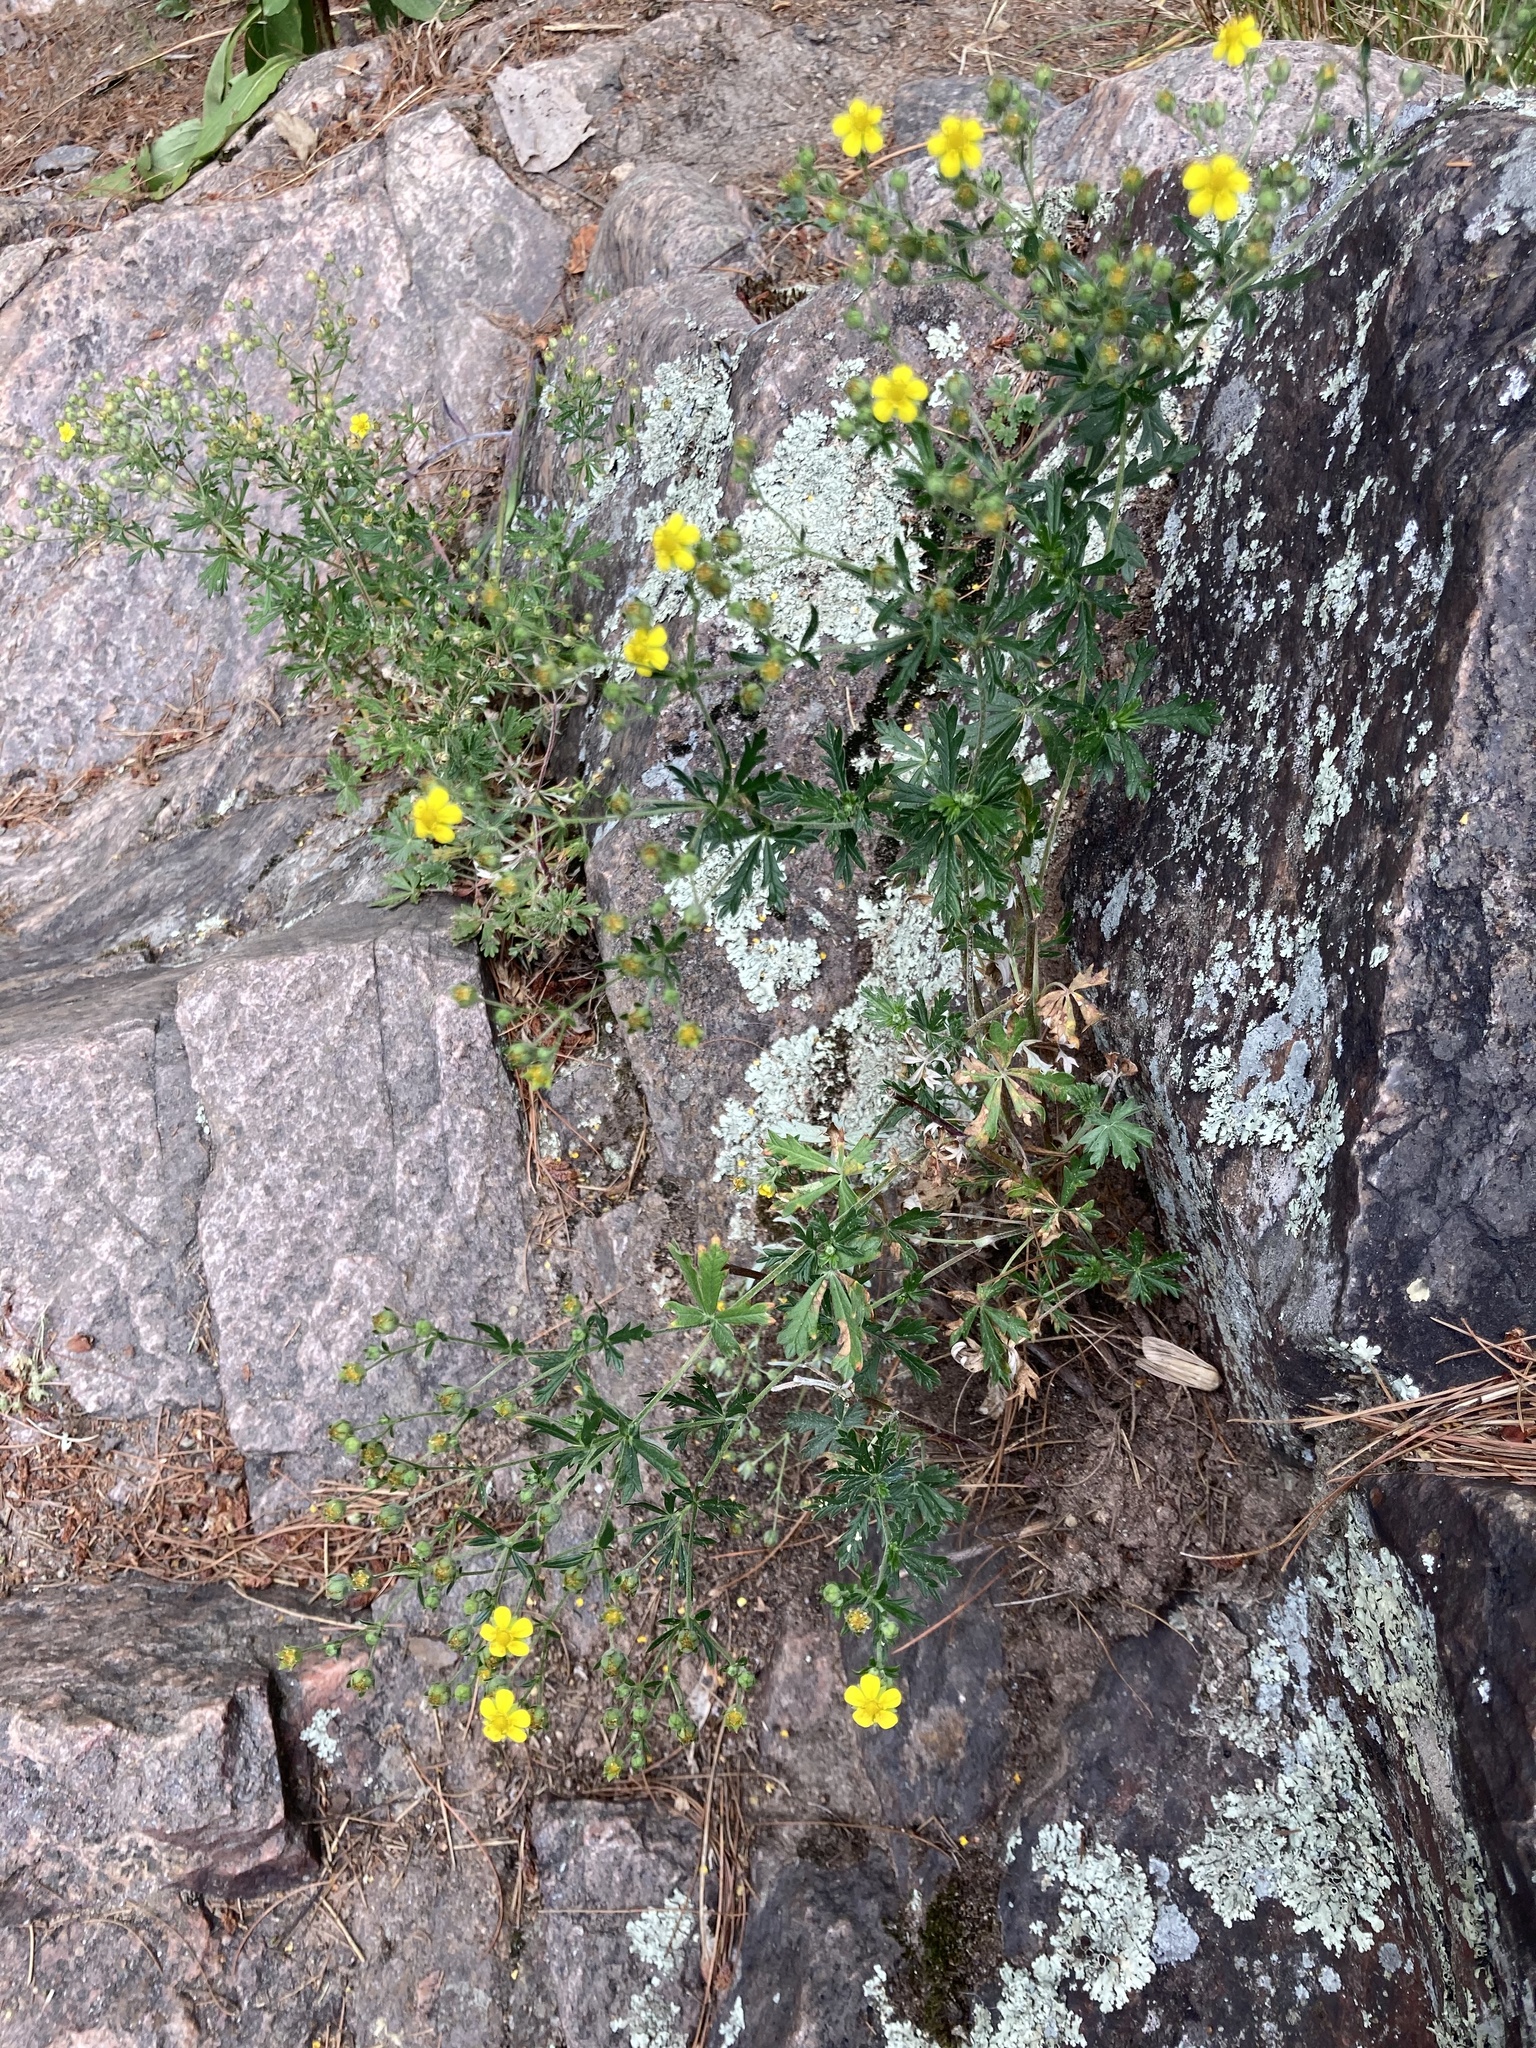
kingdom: Plantae
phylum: Tracheophyta
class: Magnoliopsida
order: Rosales
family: Rosaceae
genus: Potentilla
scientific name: Potentilla argentea
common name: Hoary cinquefoil
